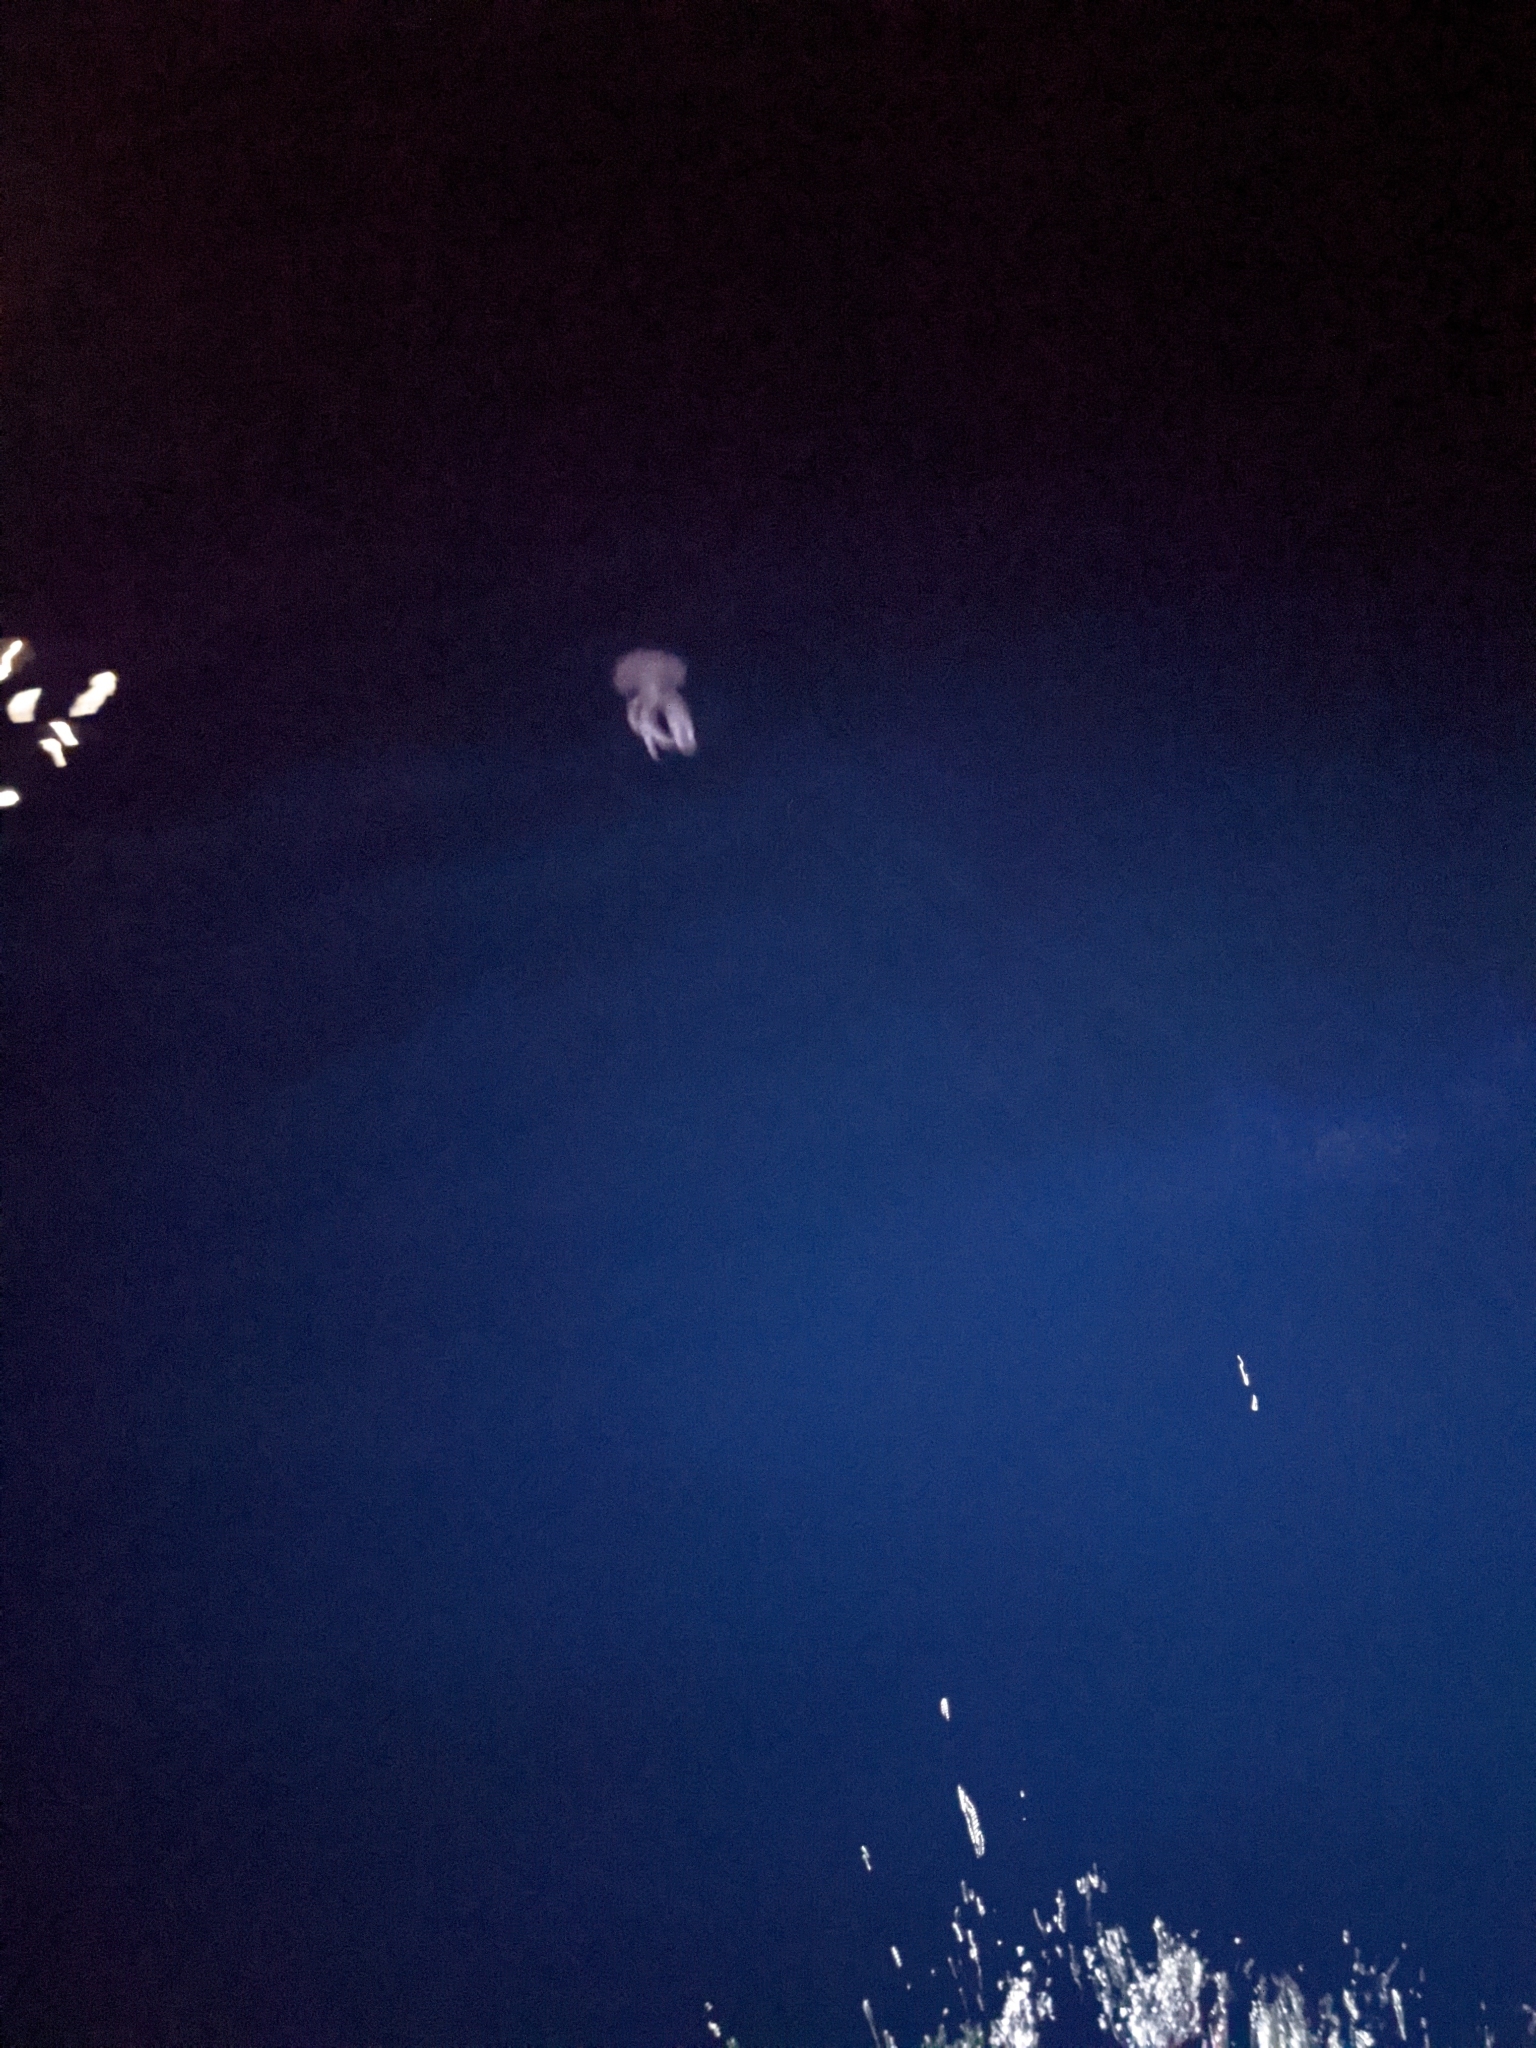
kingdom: Animalia
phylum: Cnidaria
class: Scyphozoa
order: Semaeostomeae
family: Pelagiidae
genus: Pelagia
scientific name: Pelagia noctiluca
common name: Mauve stinger
